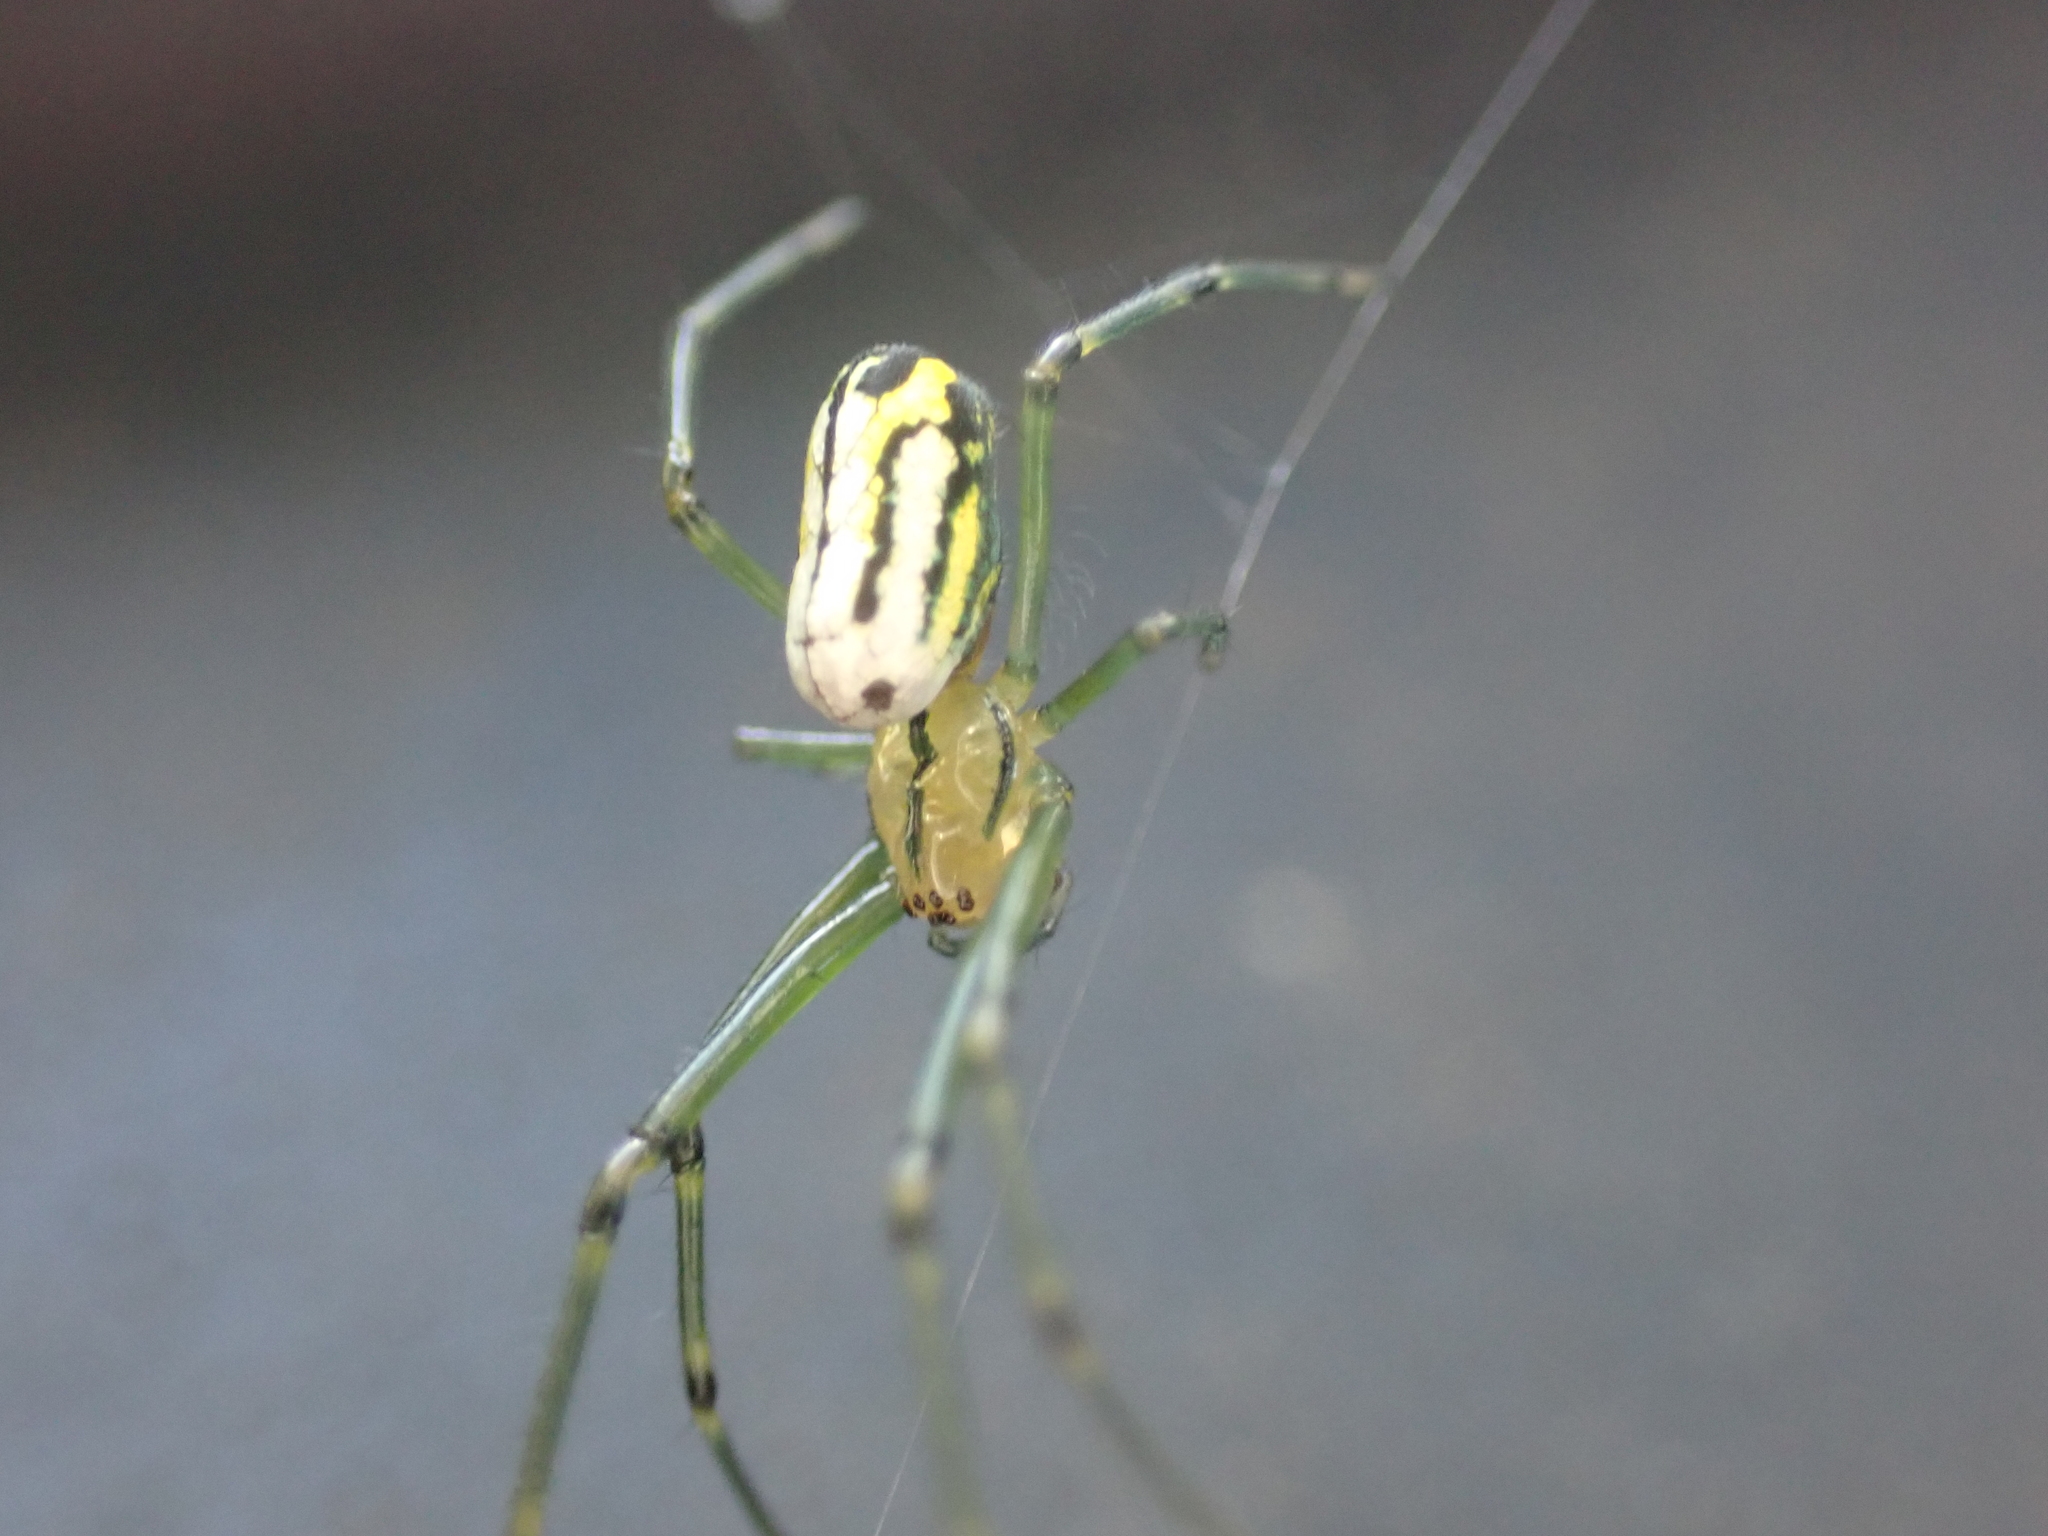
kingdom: Animalia
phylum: Arthropoda
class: Arachnida
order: Araneae
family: Tetragnathidae
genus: Leucauge
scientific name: Leucauge venusta
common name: Longjawed orb weavers
